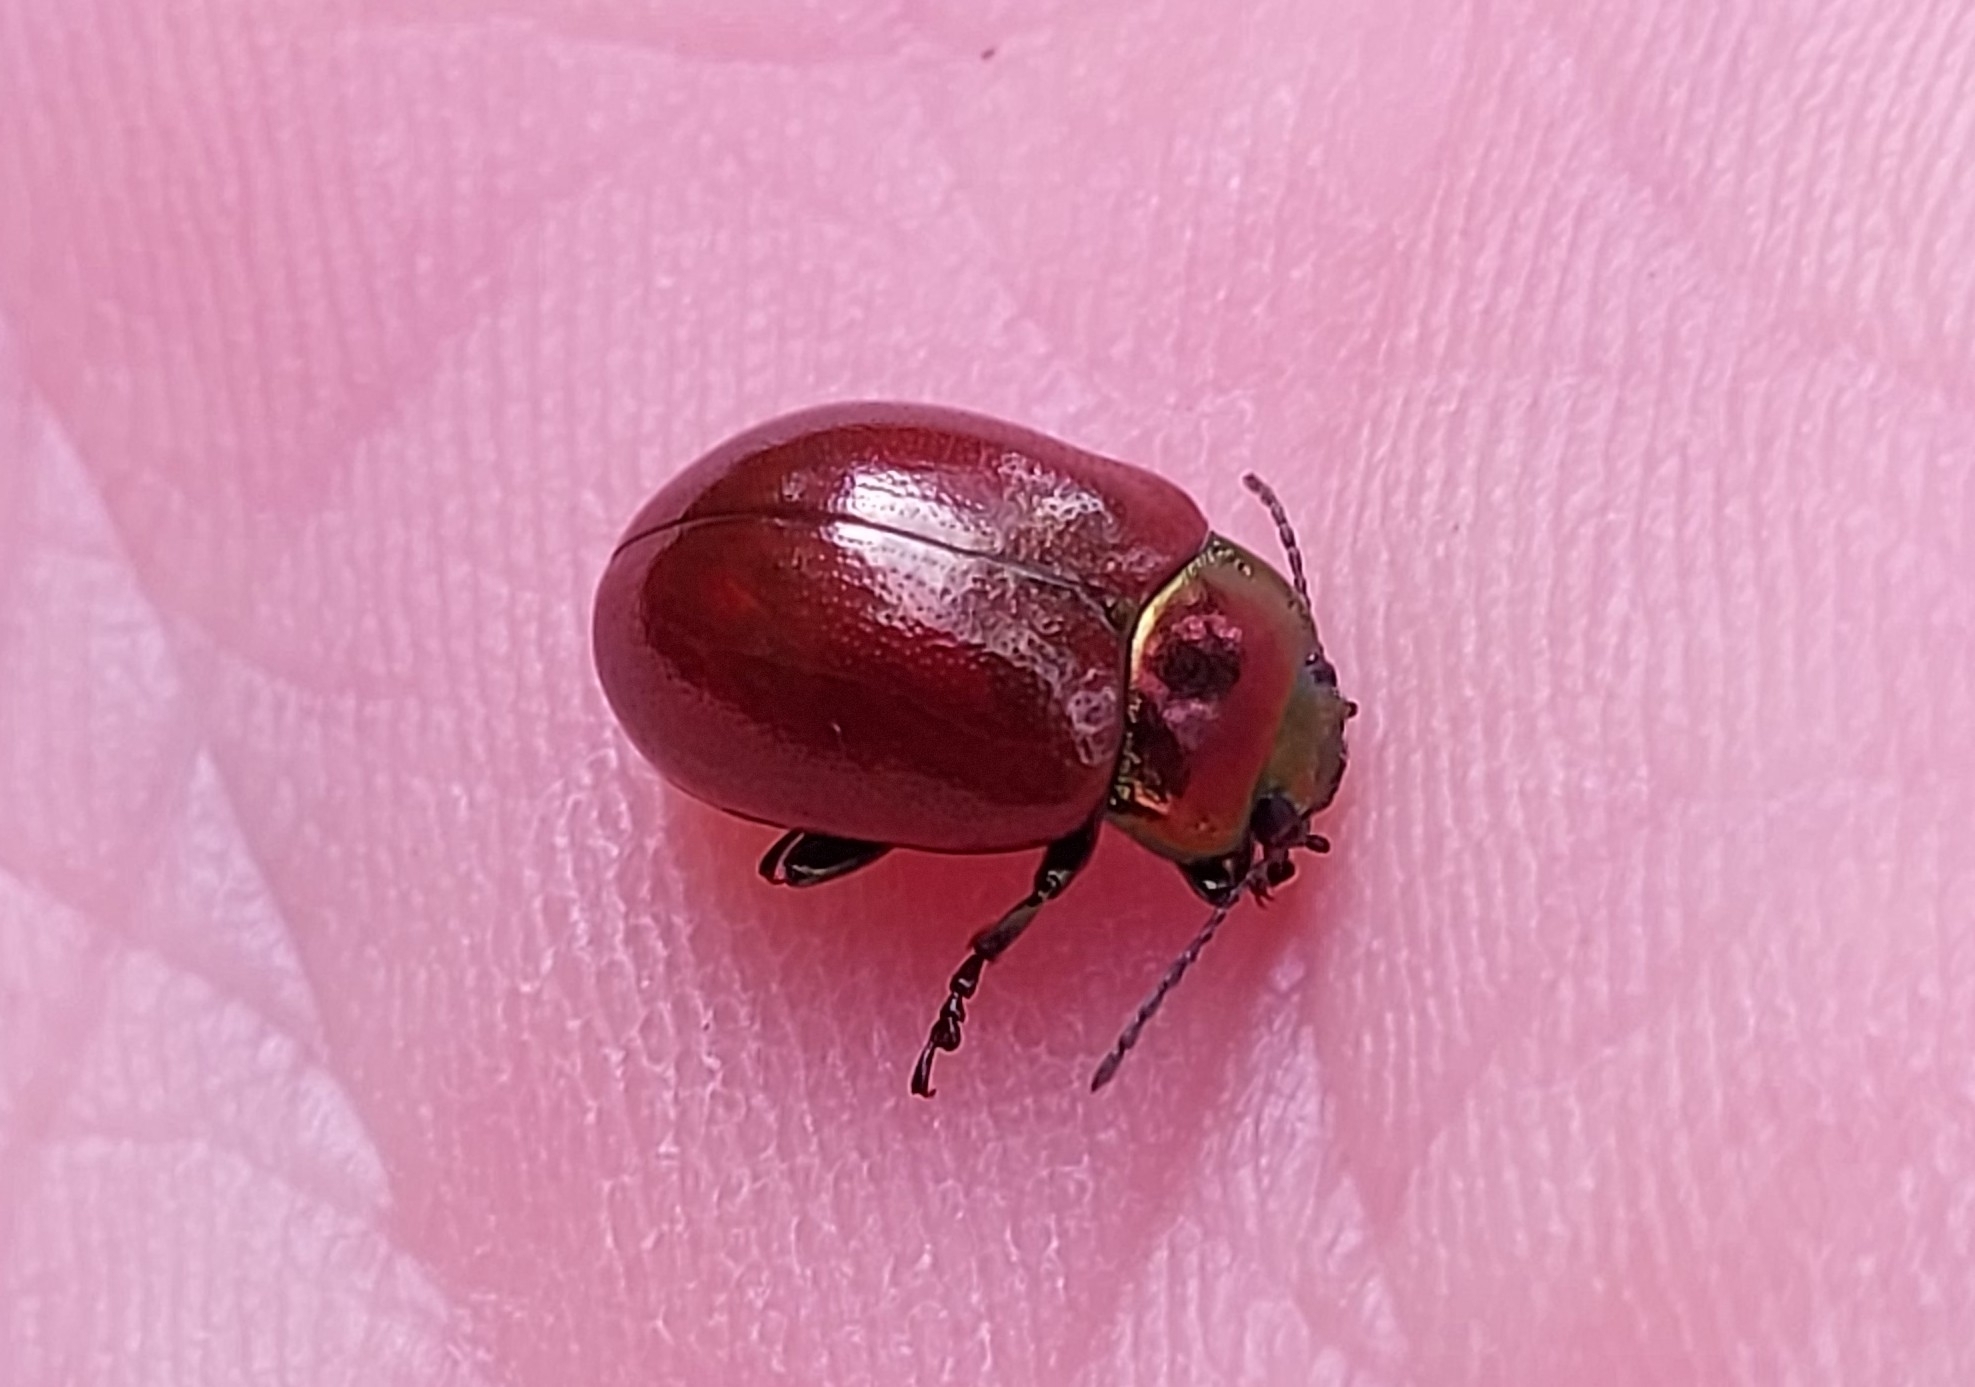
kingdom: Animalia
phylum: Arthropoda
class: Insecta
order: Coleoptera
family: Chrysomelidae
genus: Chrysomela
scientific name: Chrysomela polita
